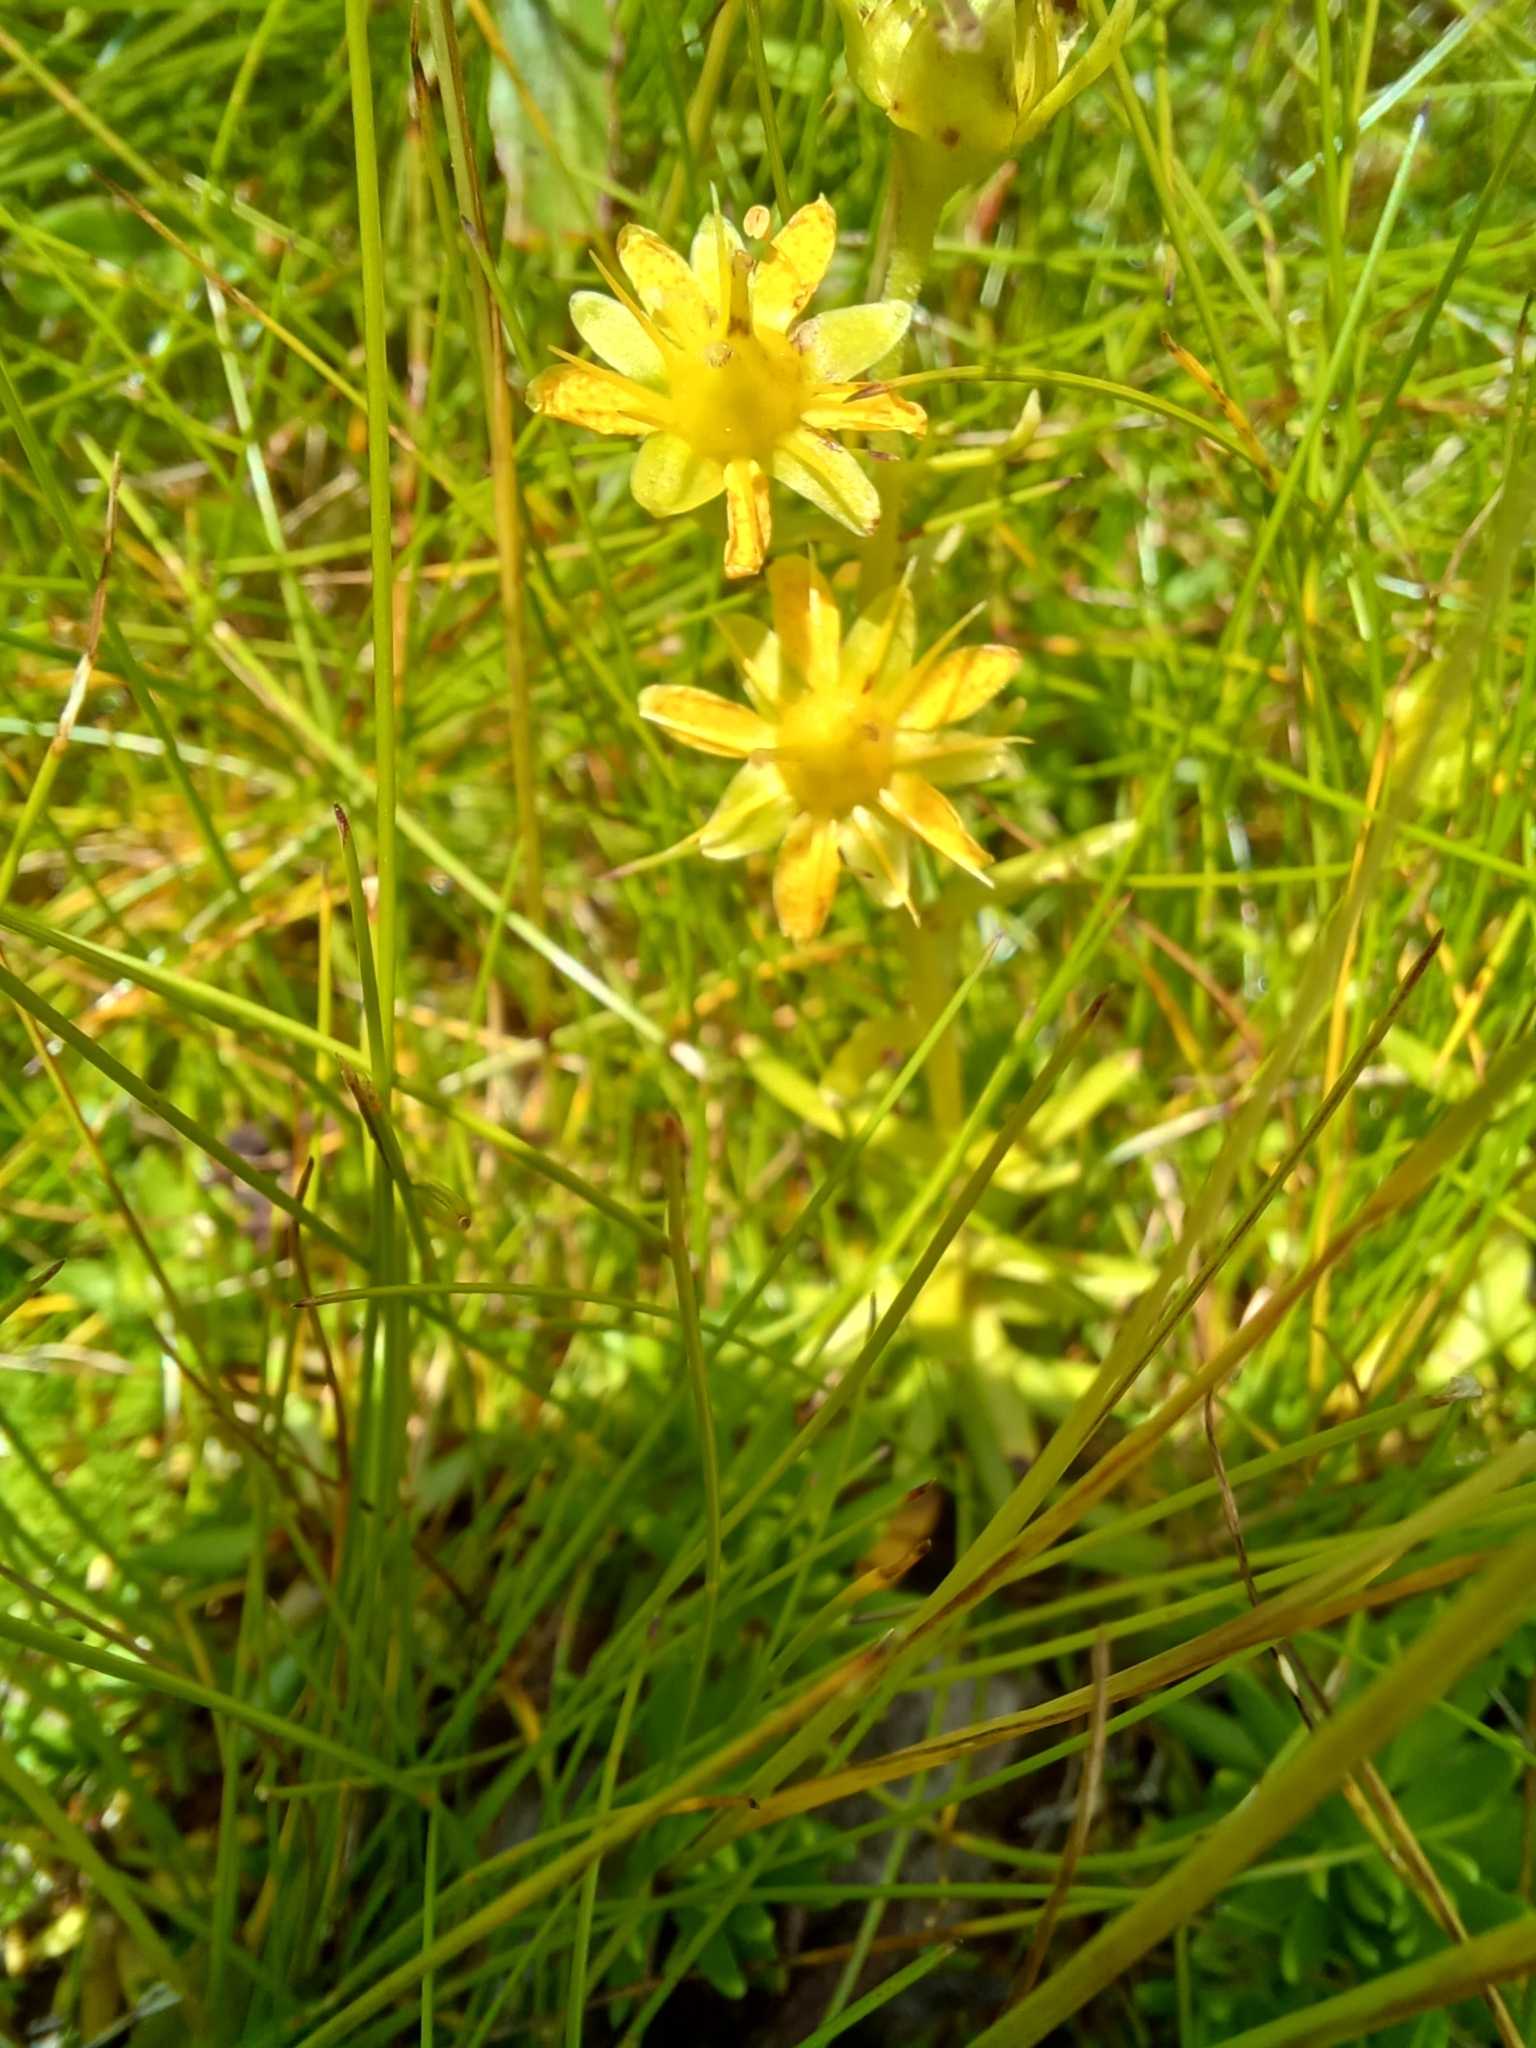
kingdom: Plantae
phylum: Tracheophyta
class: Magnoliopsida
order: Saxifragales
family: Saxifragaceae
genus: Saxifraga
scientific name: Saxifraga aizoides
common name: Yellow mountain saxifrage
